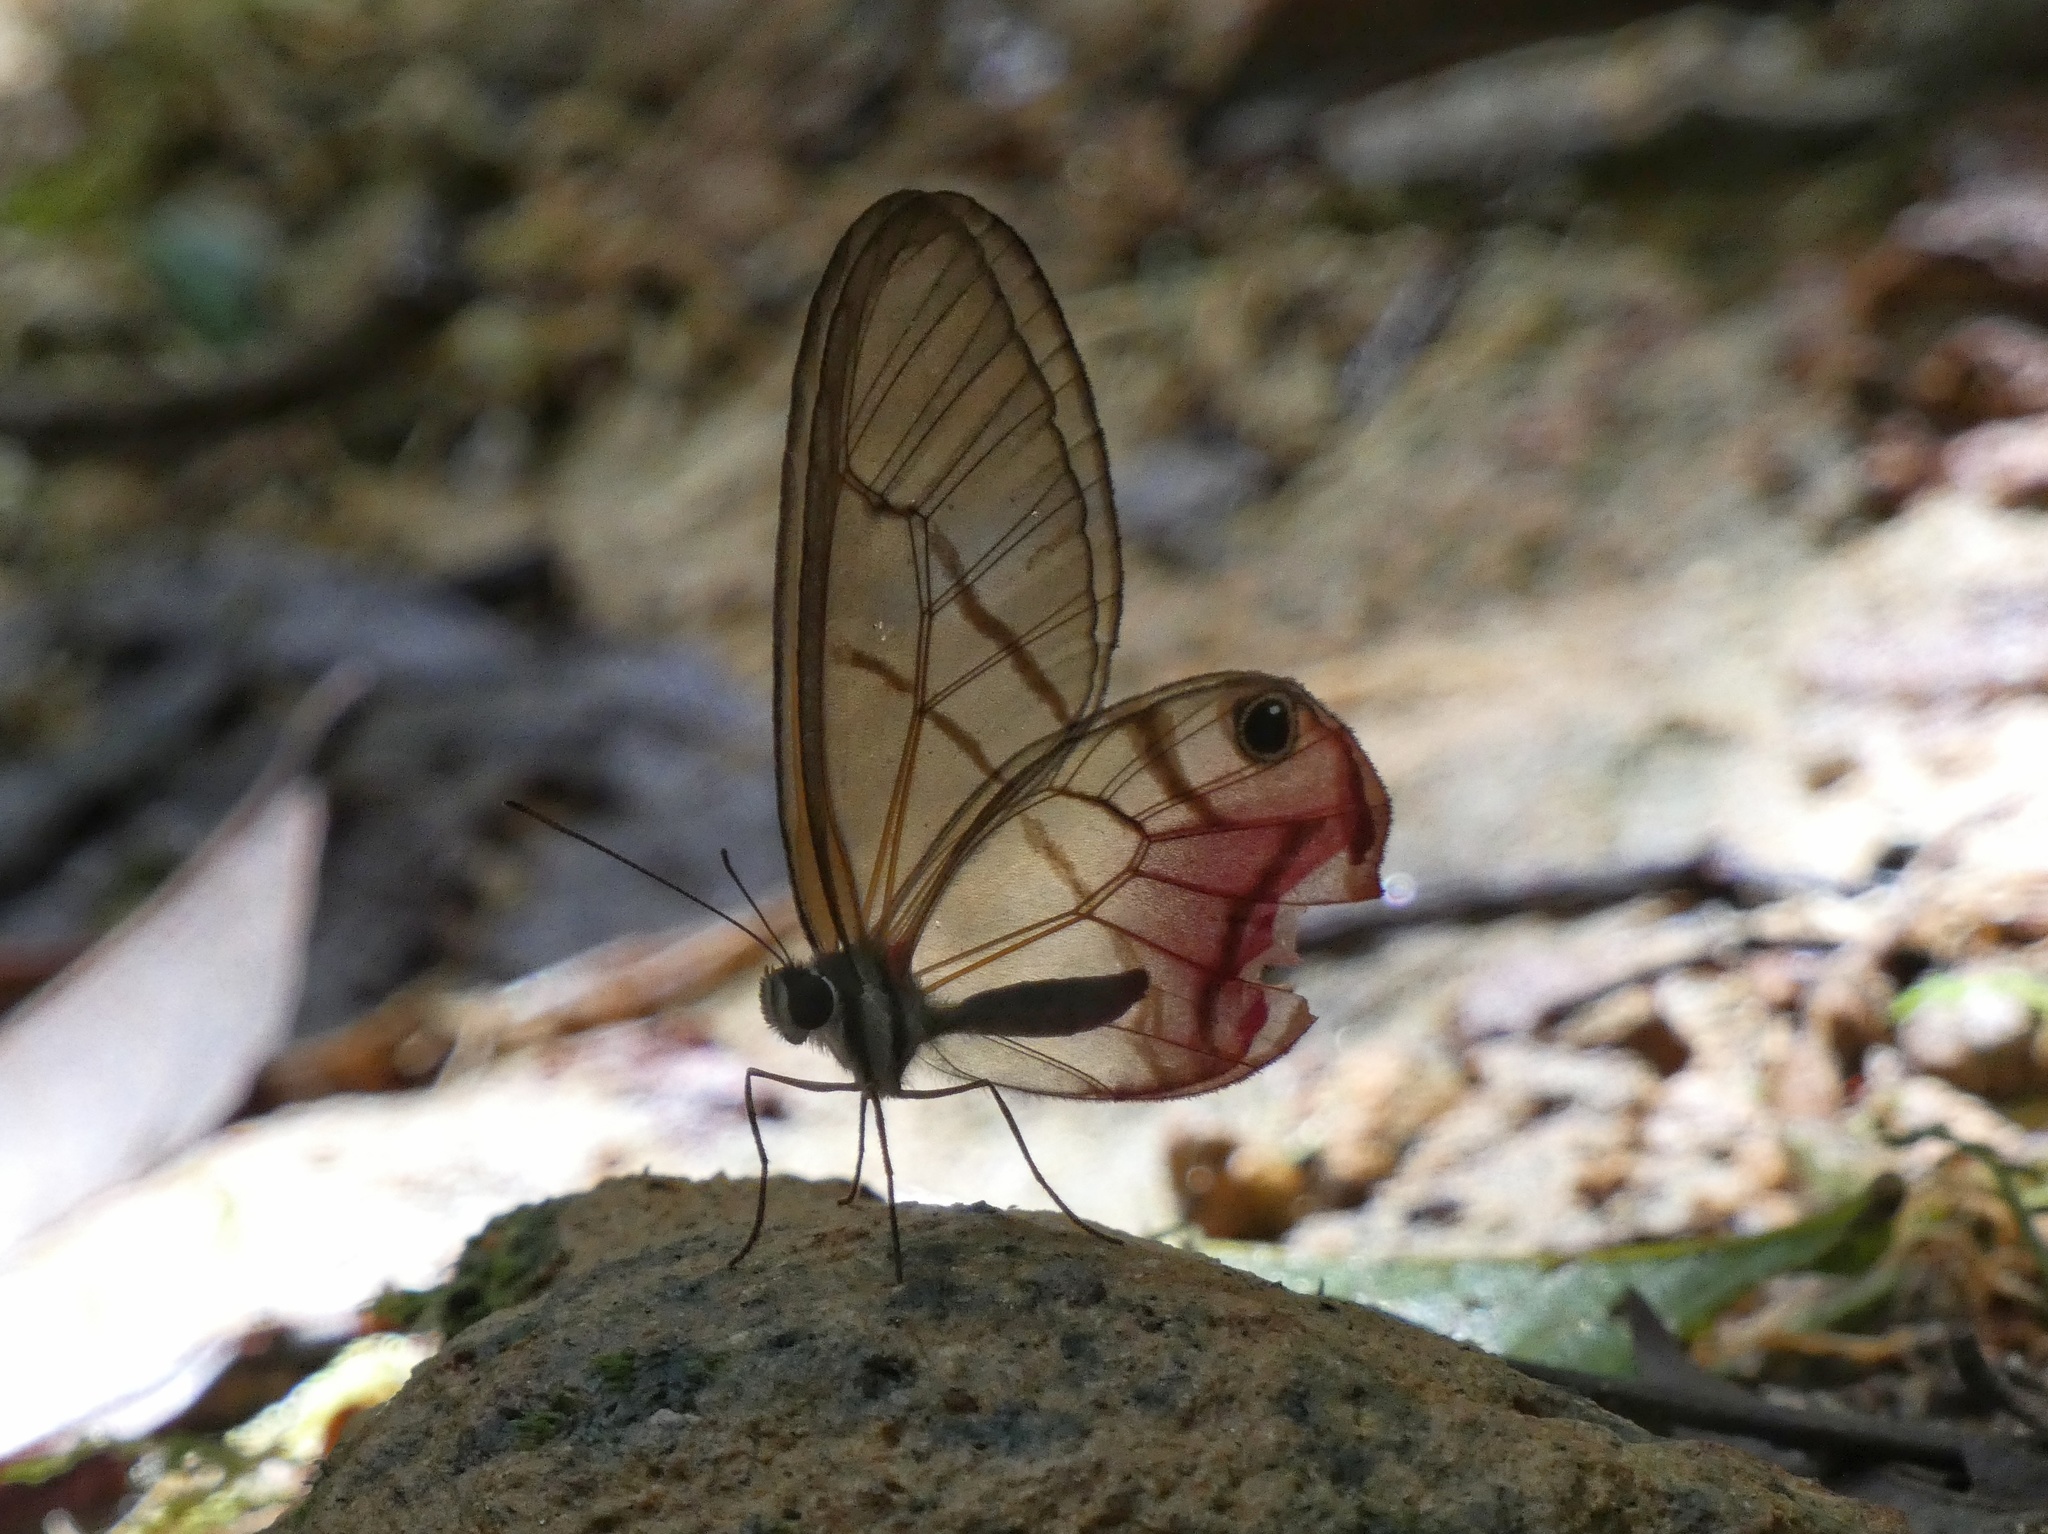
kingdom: Animalia
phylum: Arthropoda
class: Insecta
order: Lepidoptera
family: Nymphalidae
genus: Cithaerias
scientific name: Cithaerias pireta
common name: Rusted clearwing-satyr
